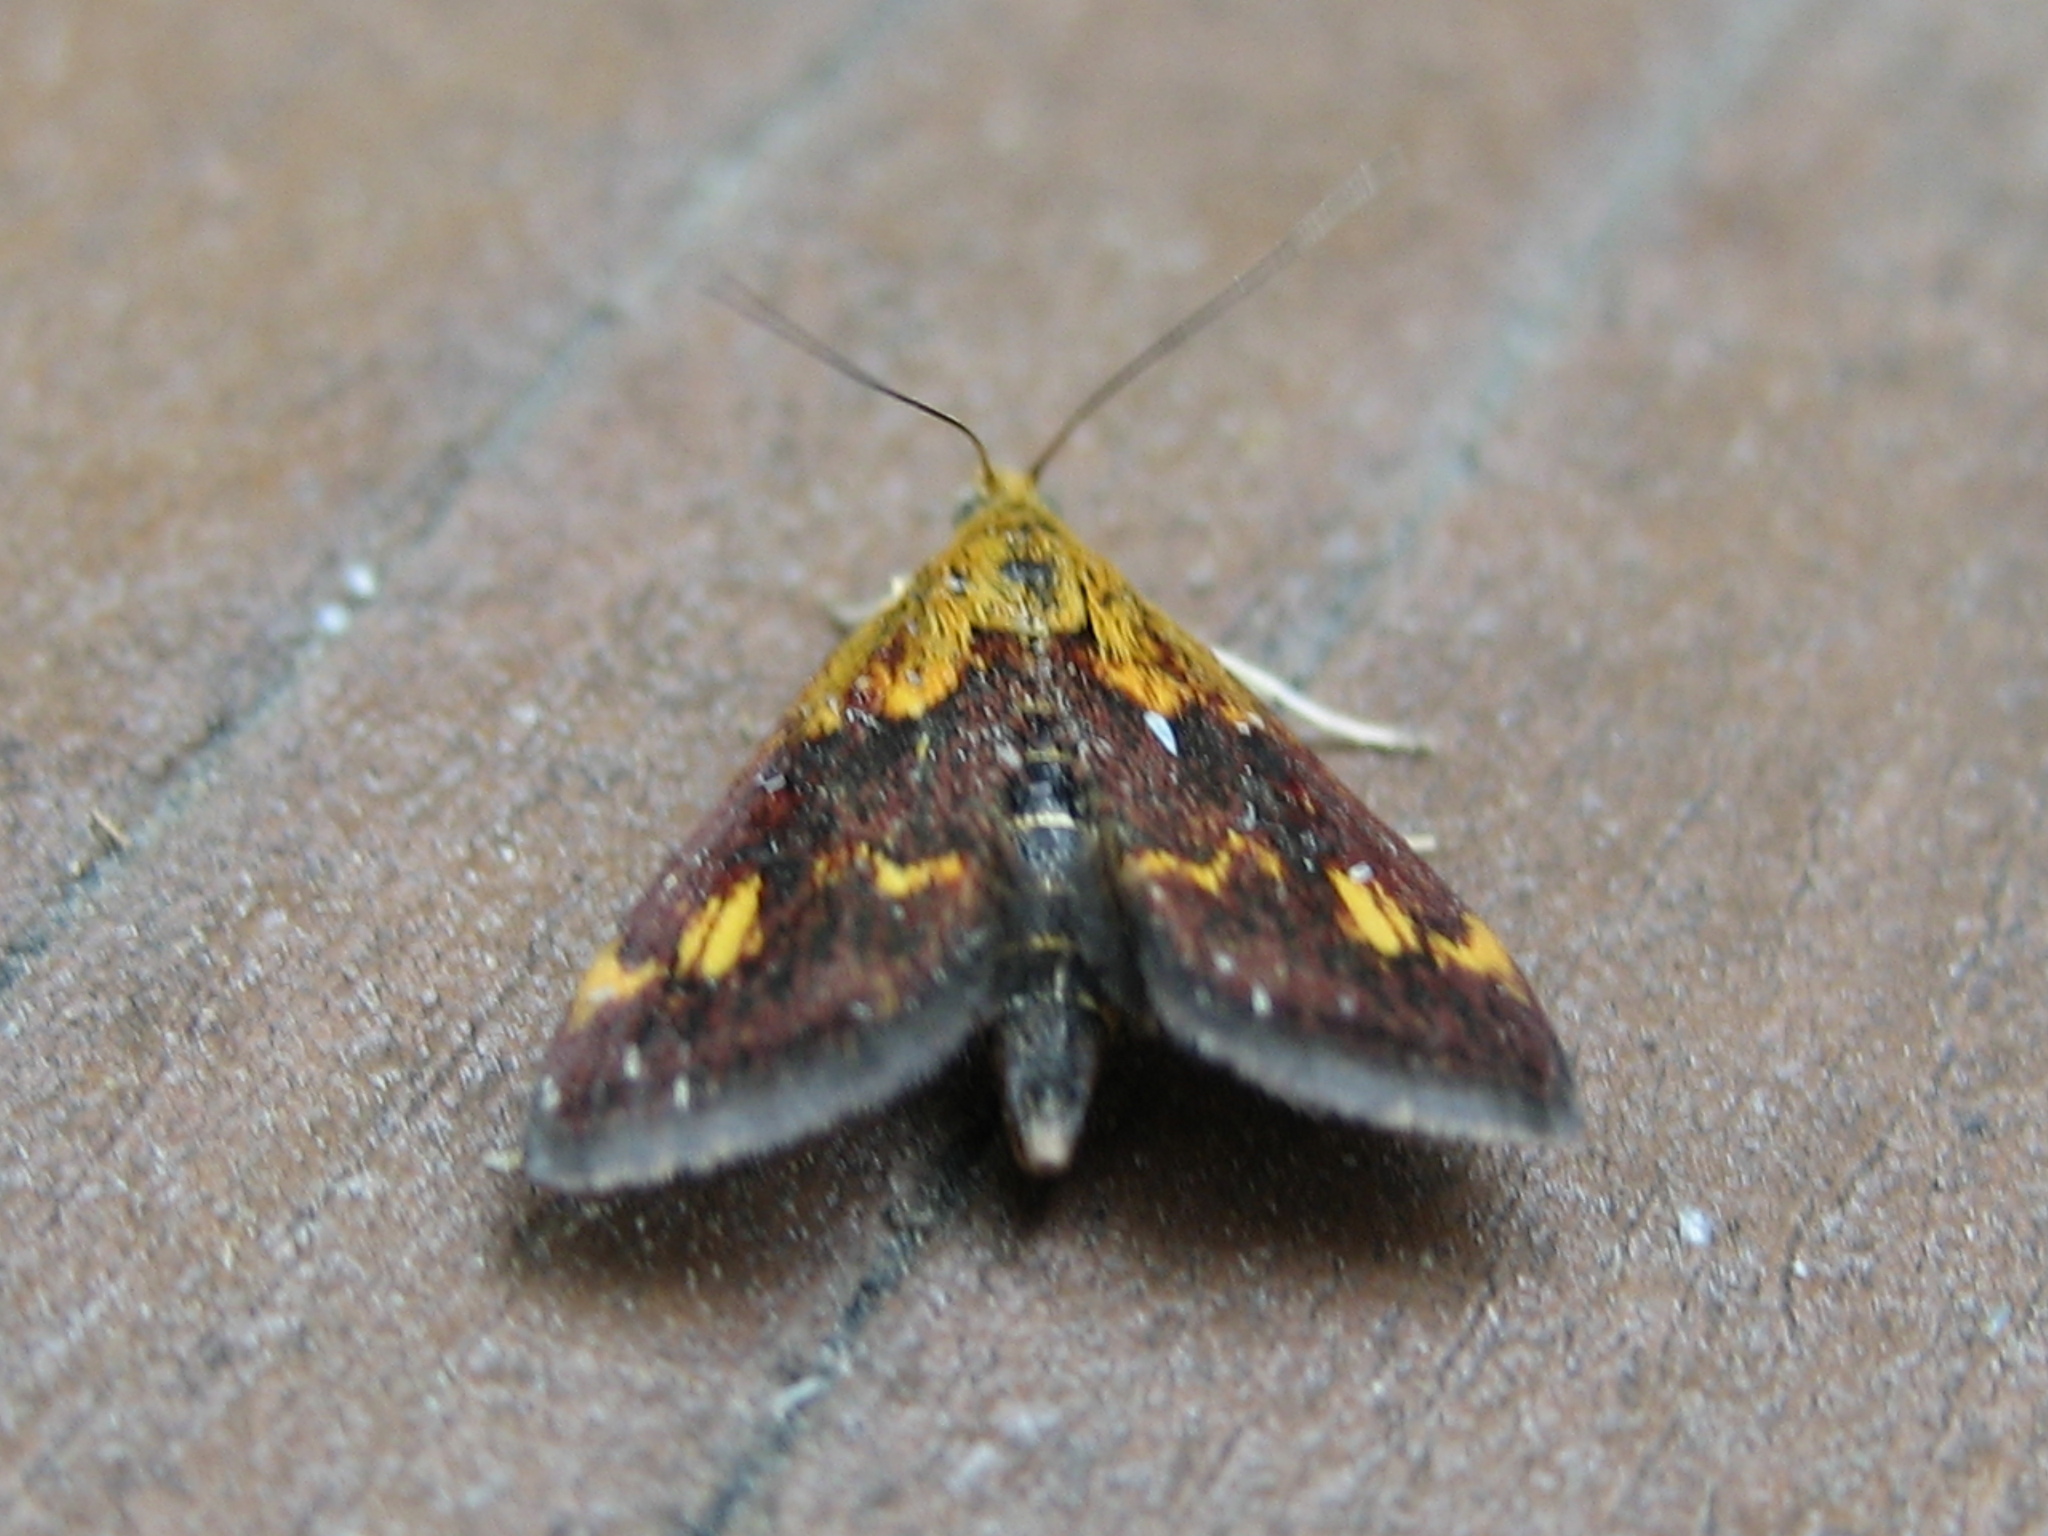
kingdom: Animalia
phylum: Arthropoda
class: Insecta
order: Lepidoptera
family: Crambidae
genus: Pyrausta
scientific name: Pyrausta orphisalis
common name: Orange mint moth
